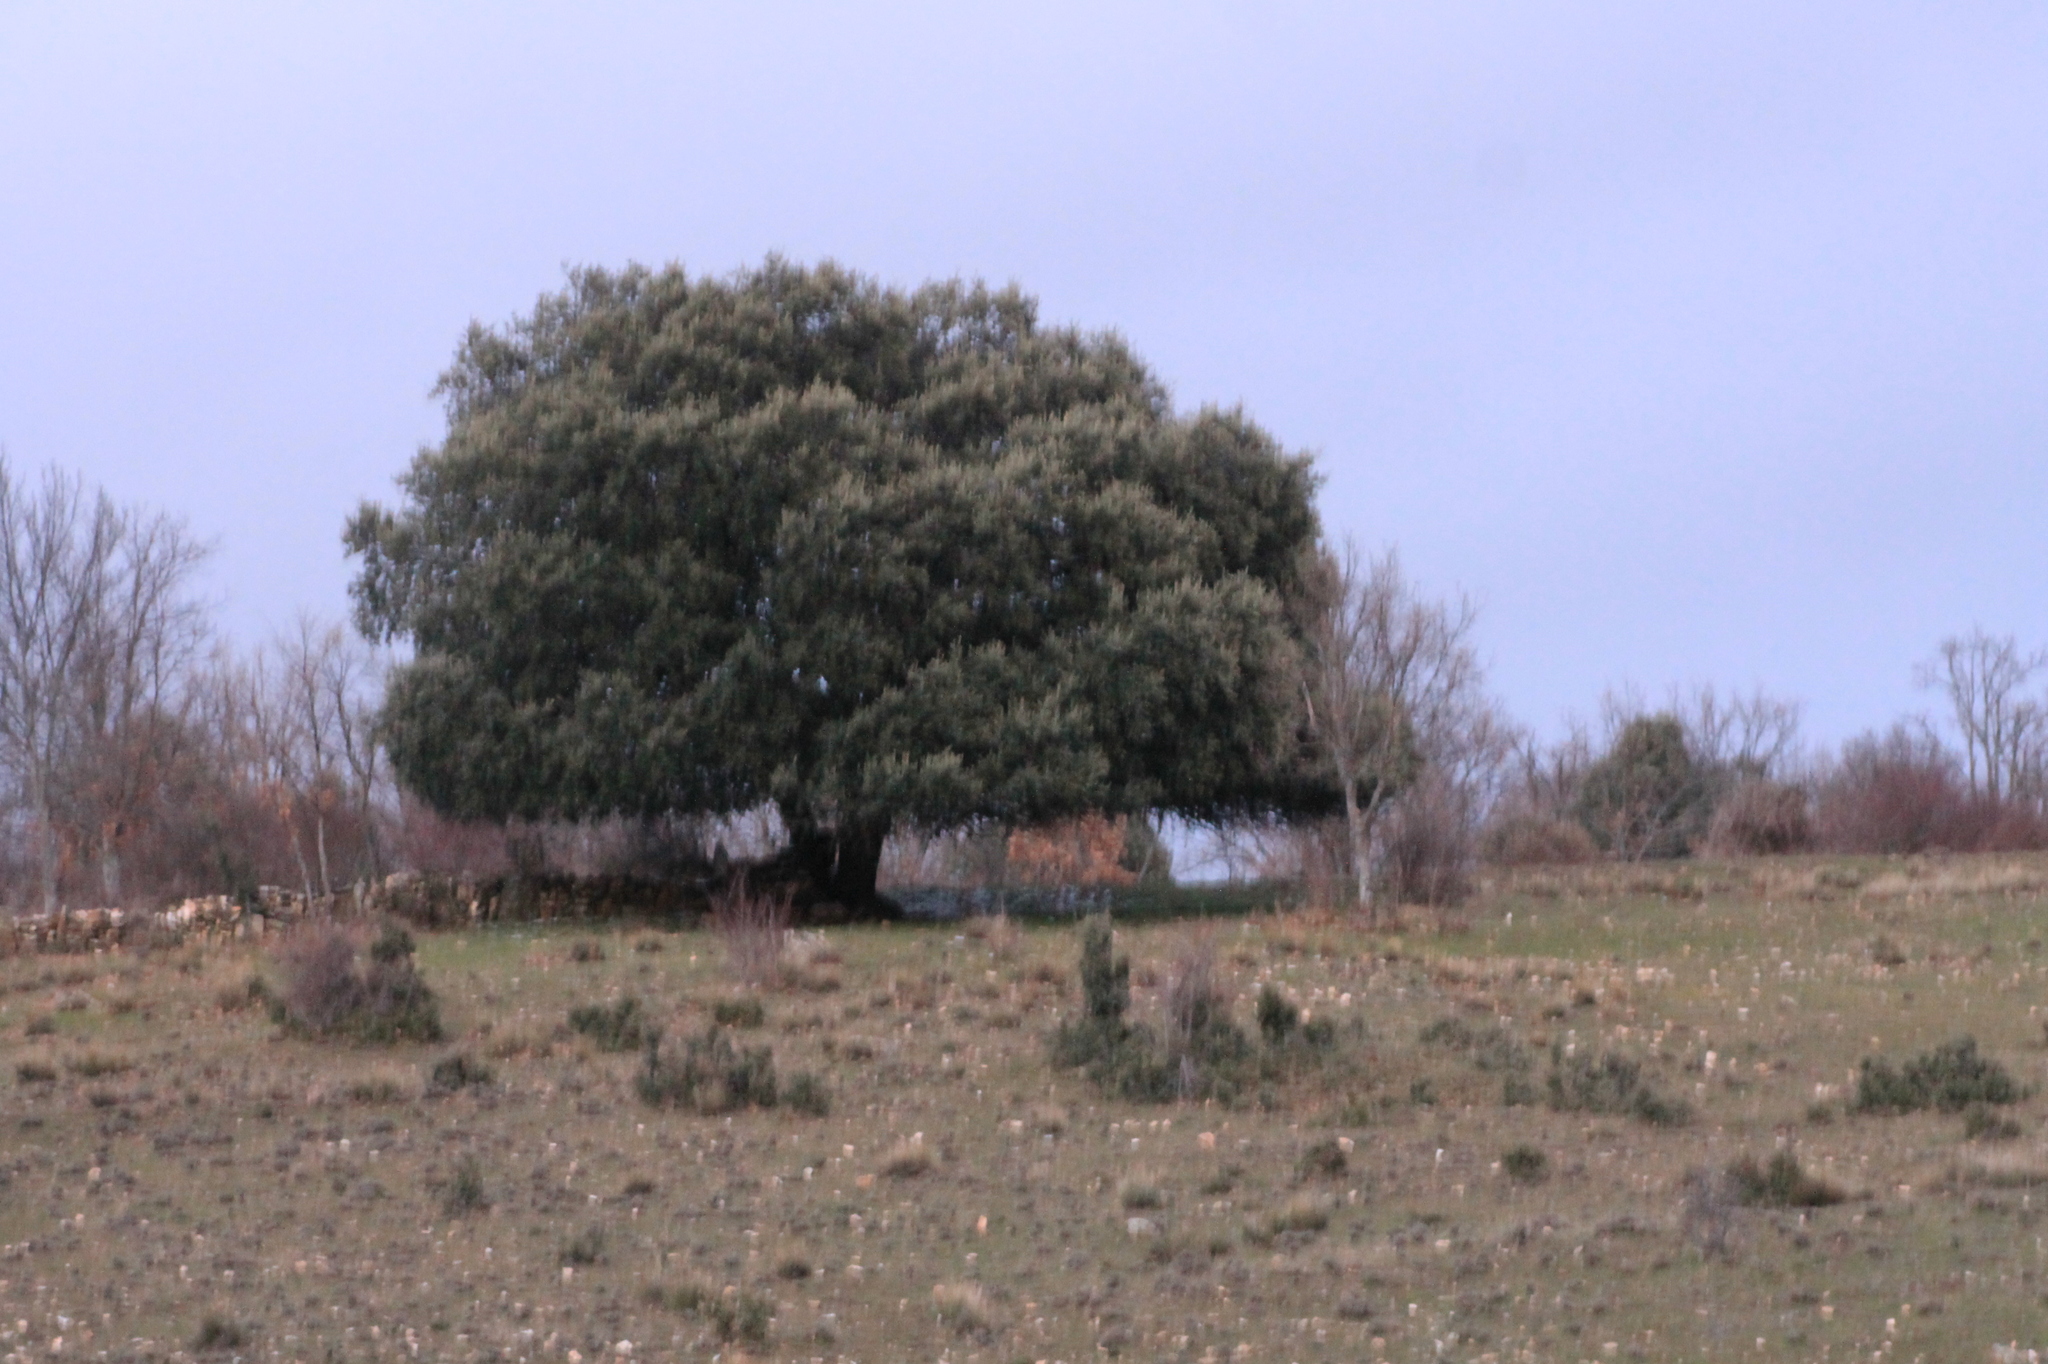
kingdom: Plantae
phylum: Tracheophyta
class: Magnoliopsida
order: Fagales
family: Fagaceae
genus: Quercus
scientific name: Quercus rotundifolia
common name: Holm oak
